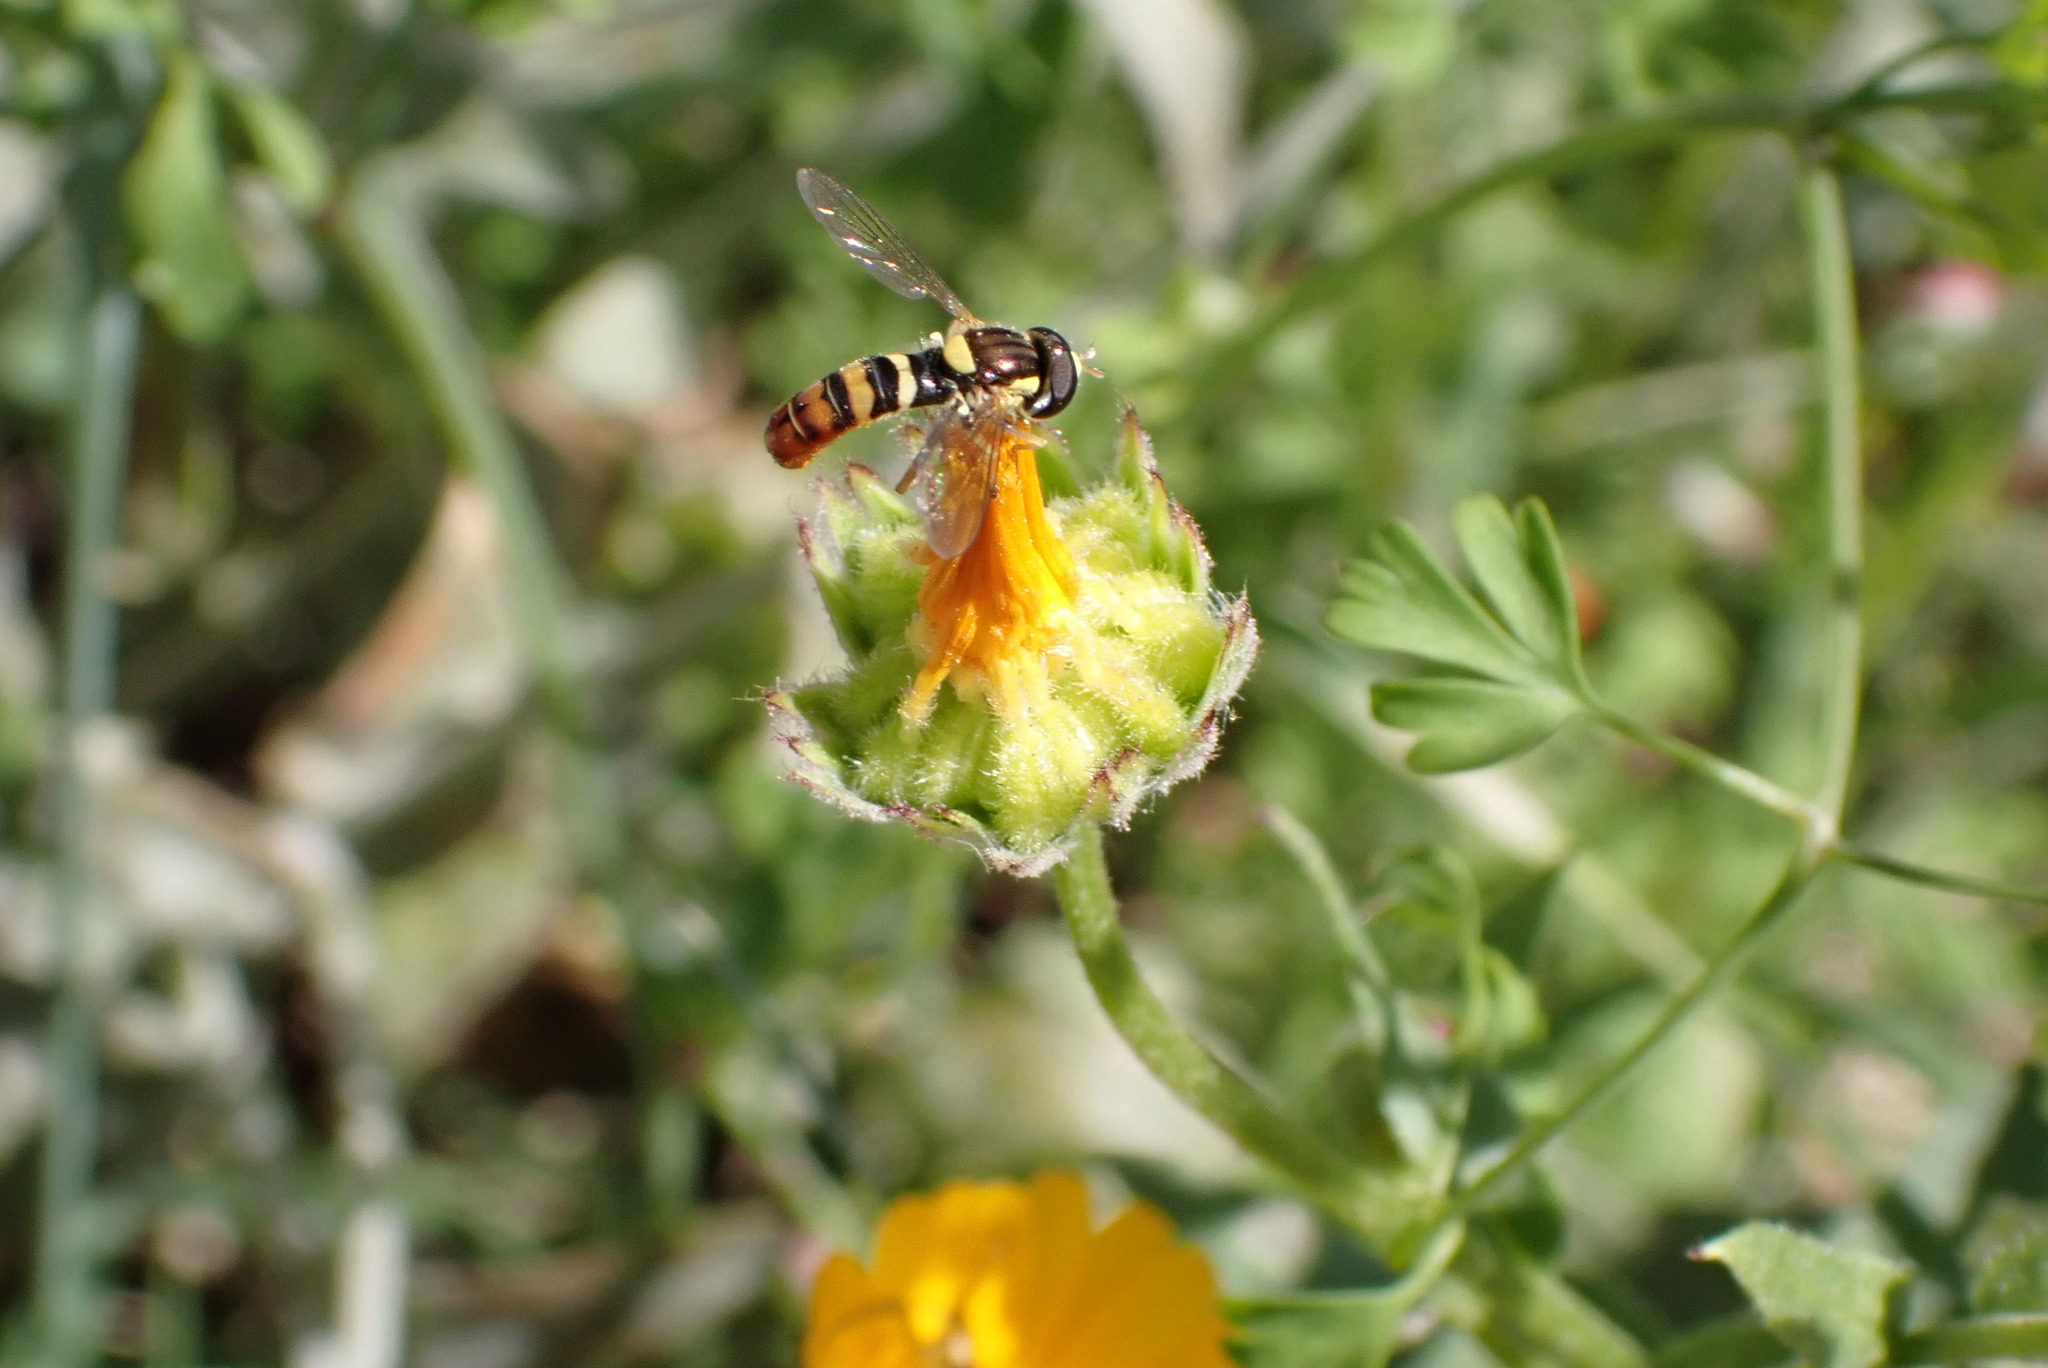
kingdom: Animalia
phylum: Arthropoda
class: Insecta
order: Diptera
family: Syrphidae
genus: Sphaerophoria
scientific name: Sphaerophoria sulphuripes
